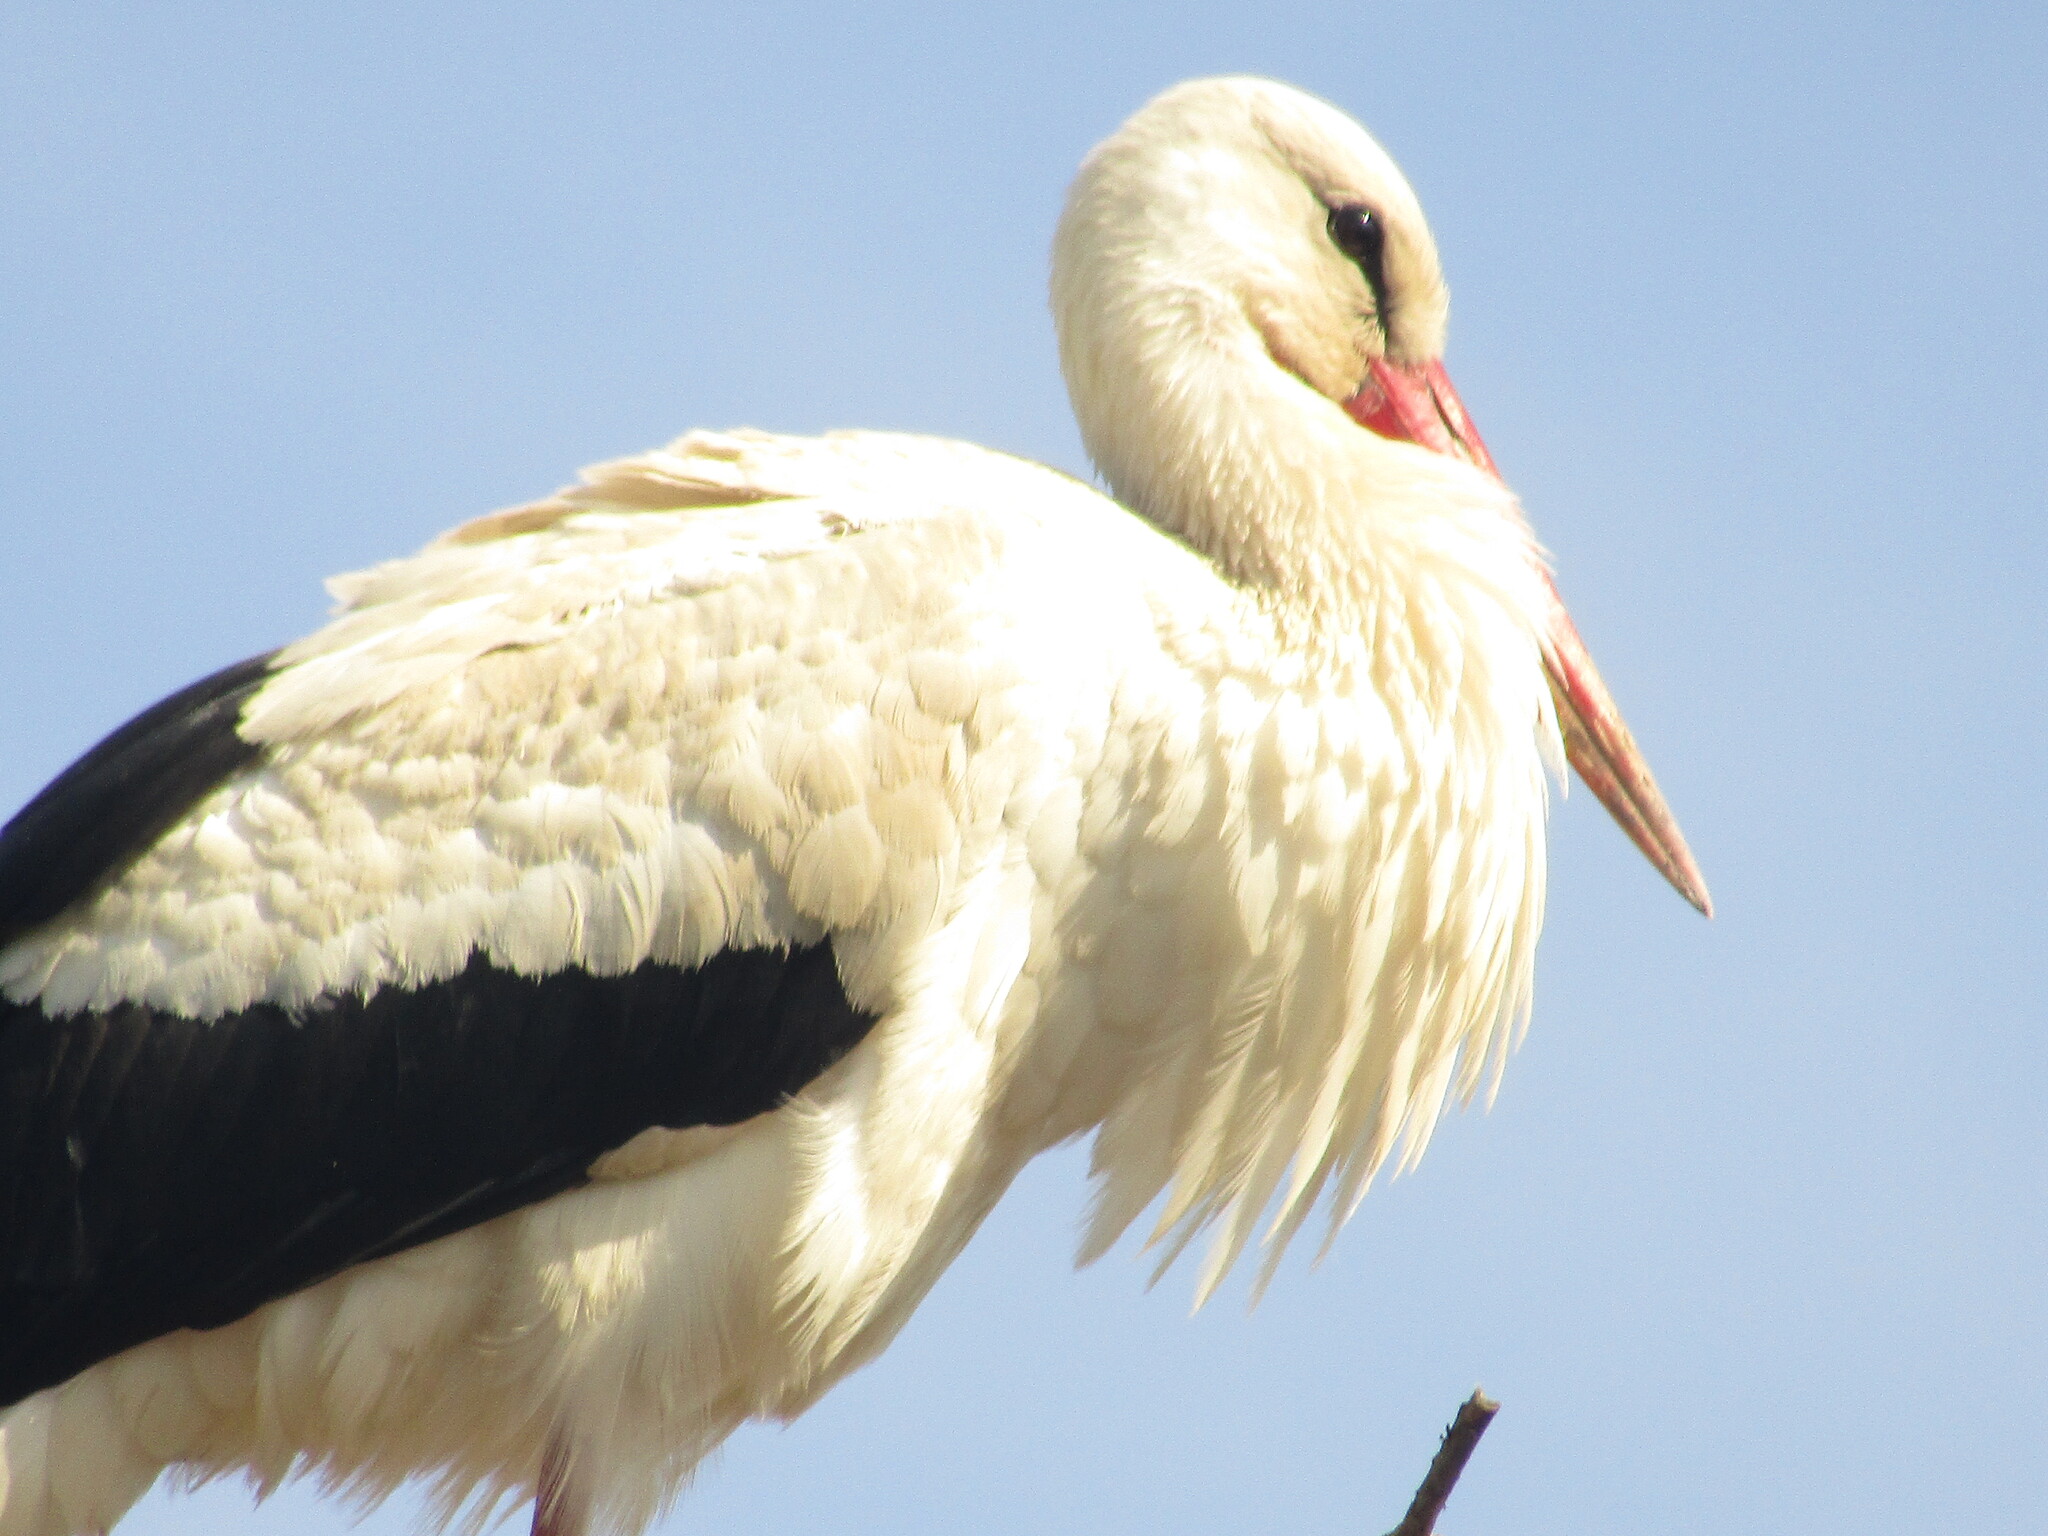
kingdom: Animalia
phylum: Chordata
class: Aves
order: Ciconiiformes
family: Ciconiidae
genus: Ciconia
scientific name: Ciconia ciconia
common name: White stork
